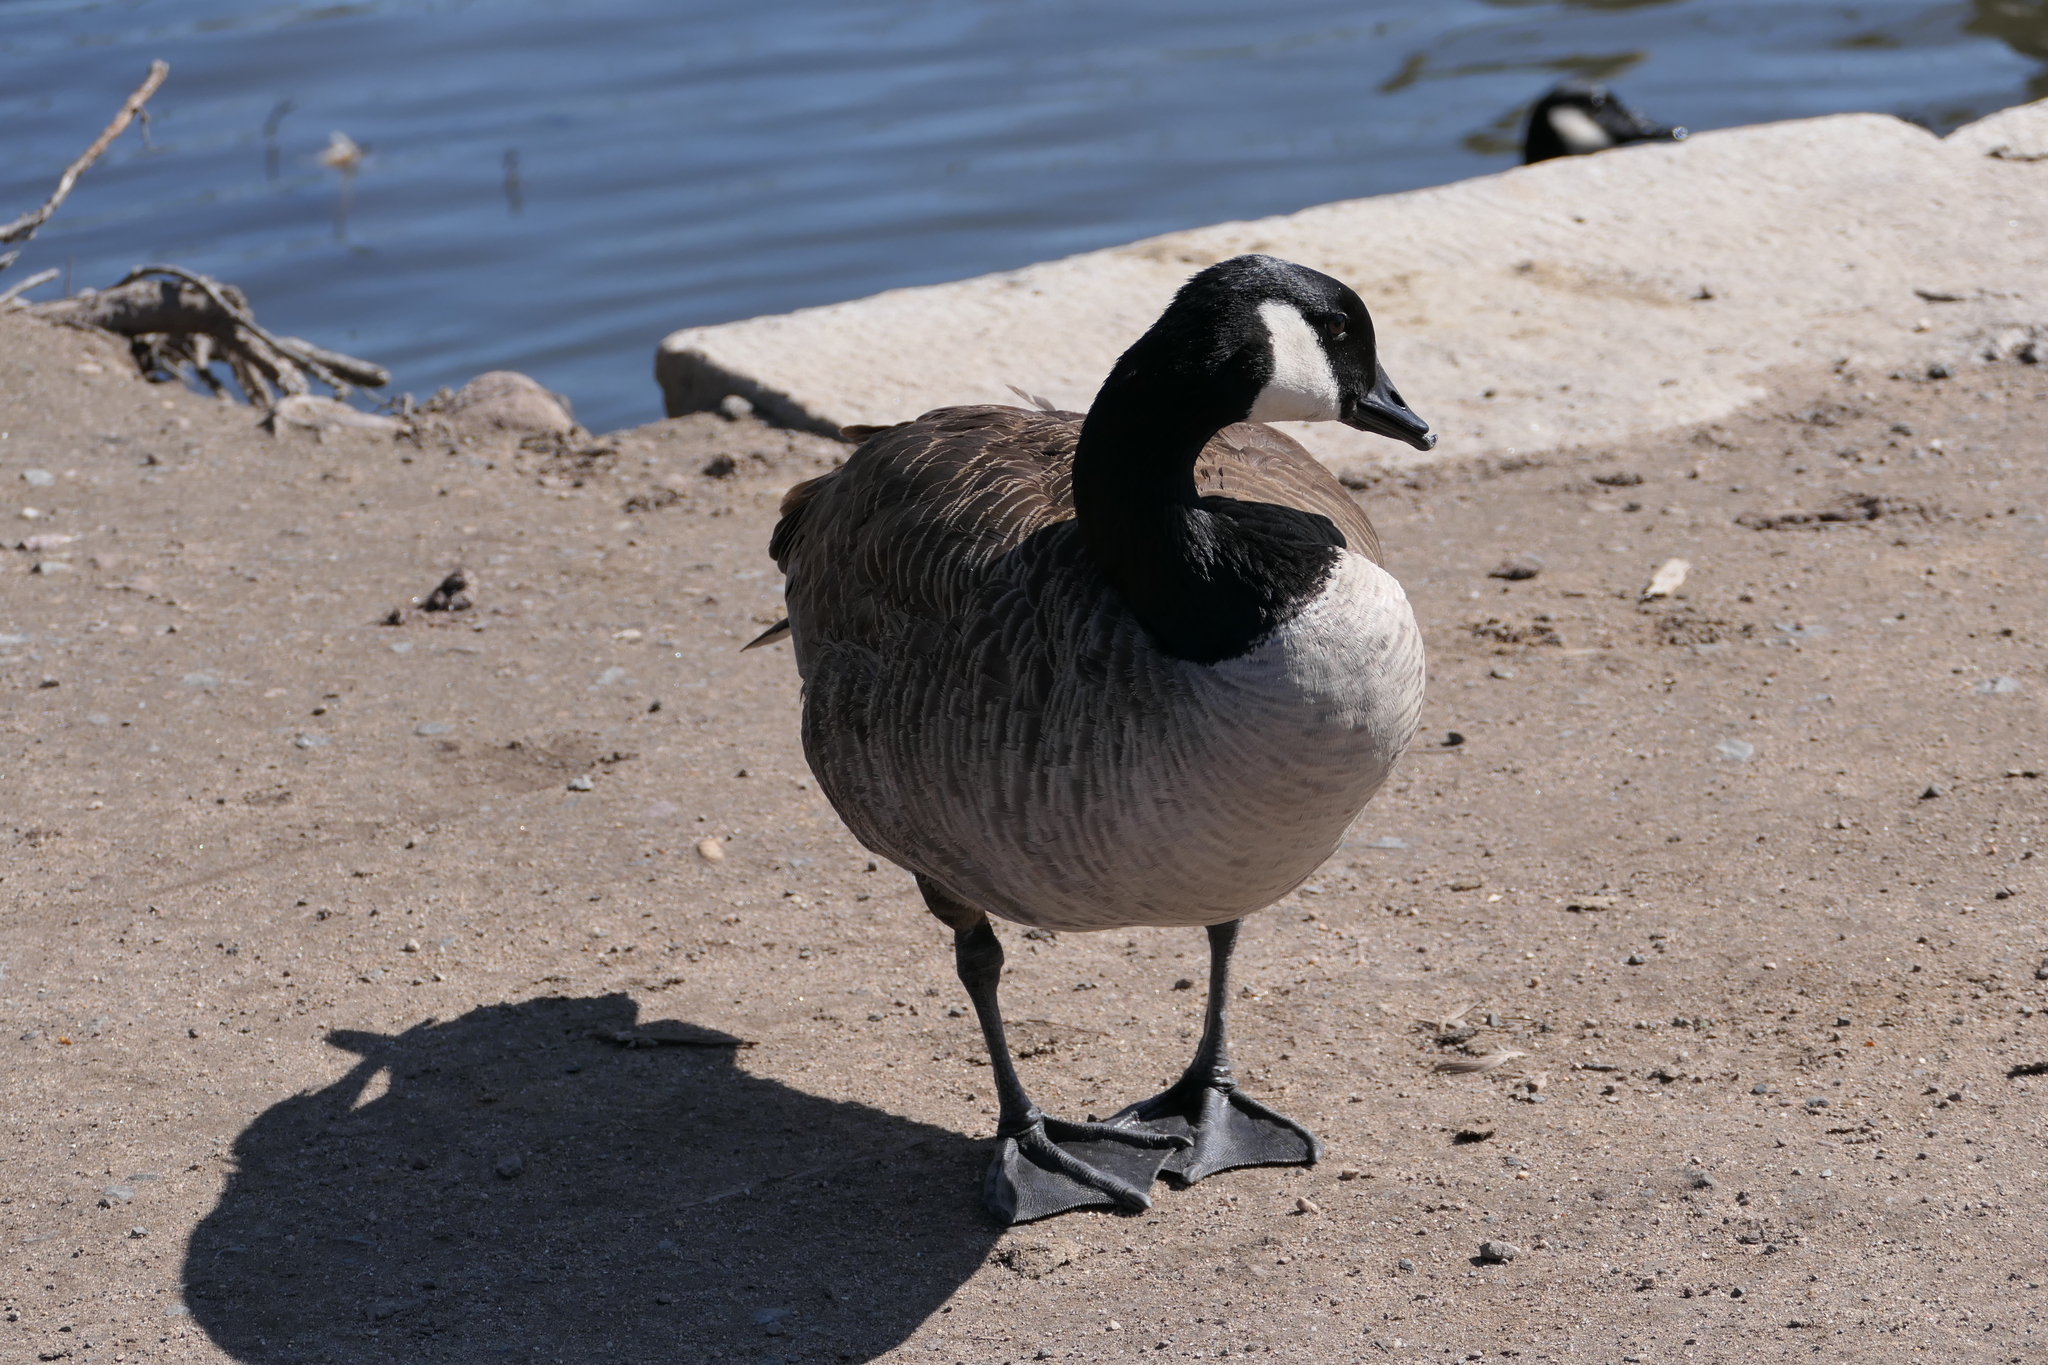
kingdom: Animalia
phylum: Chordata
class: Aves
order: Anseriformes
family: Anatidae
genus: Branta
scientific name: Branta canadensis
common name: Canada goose
